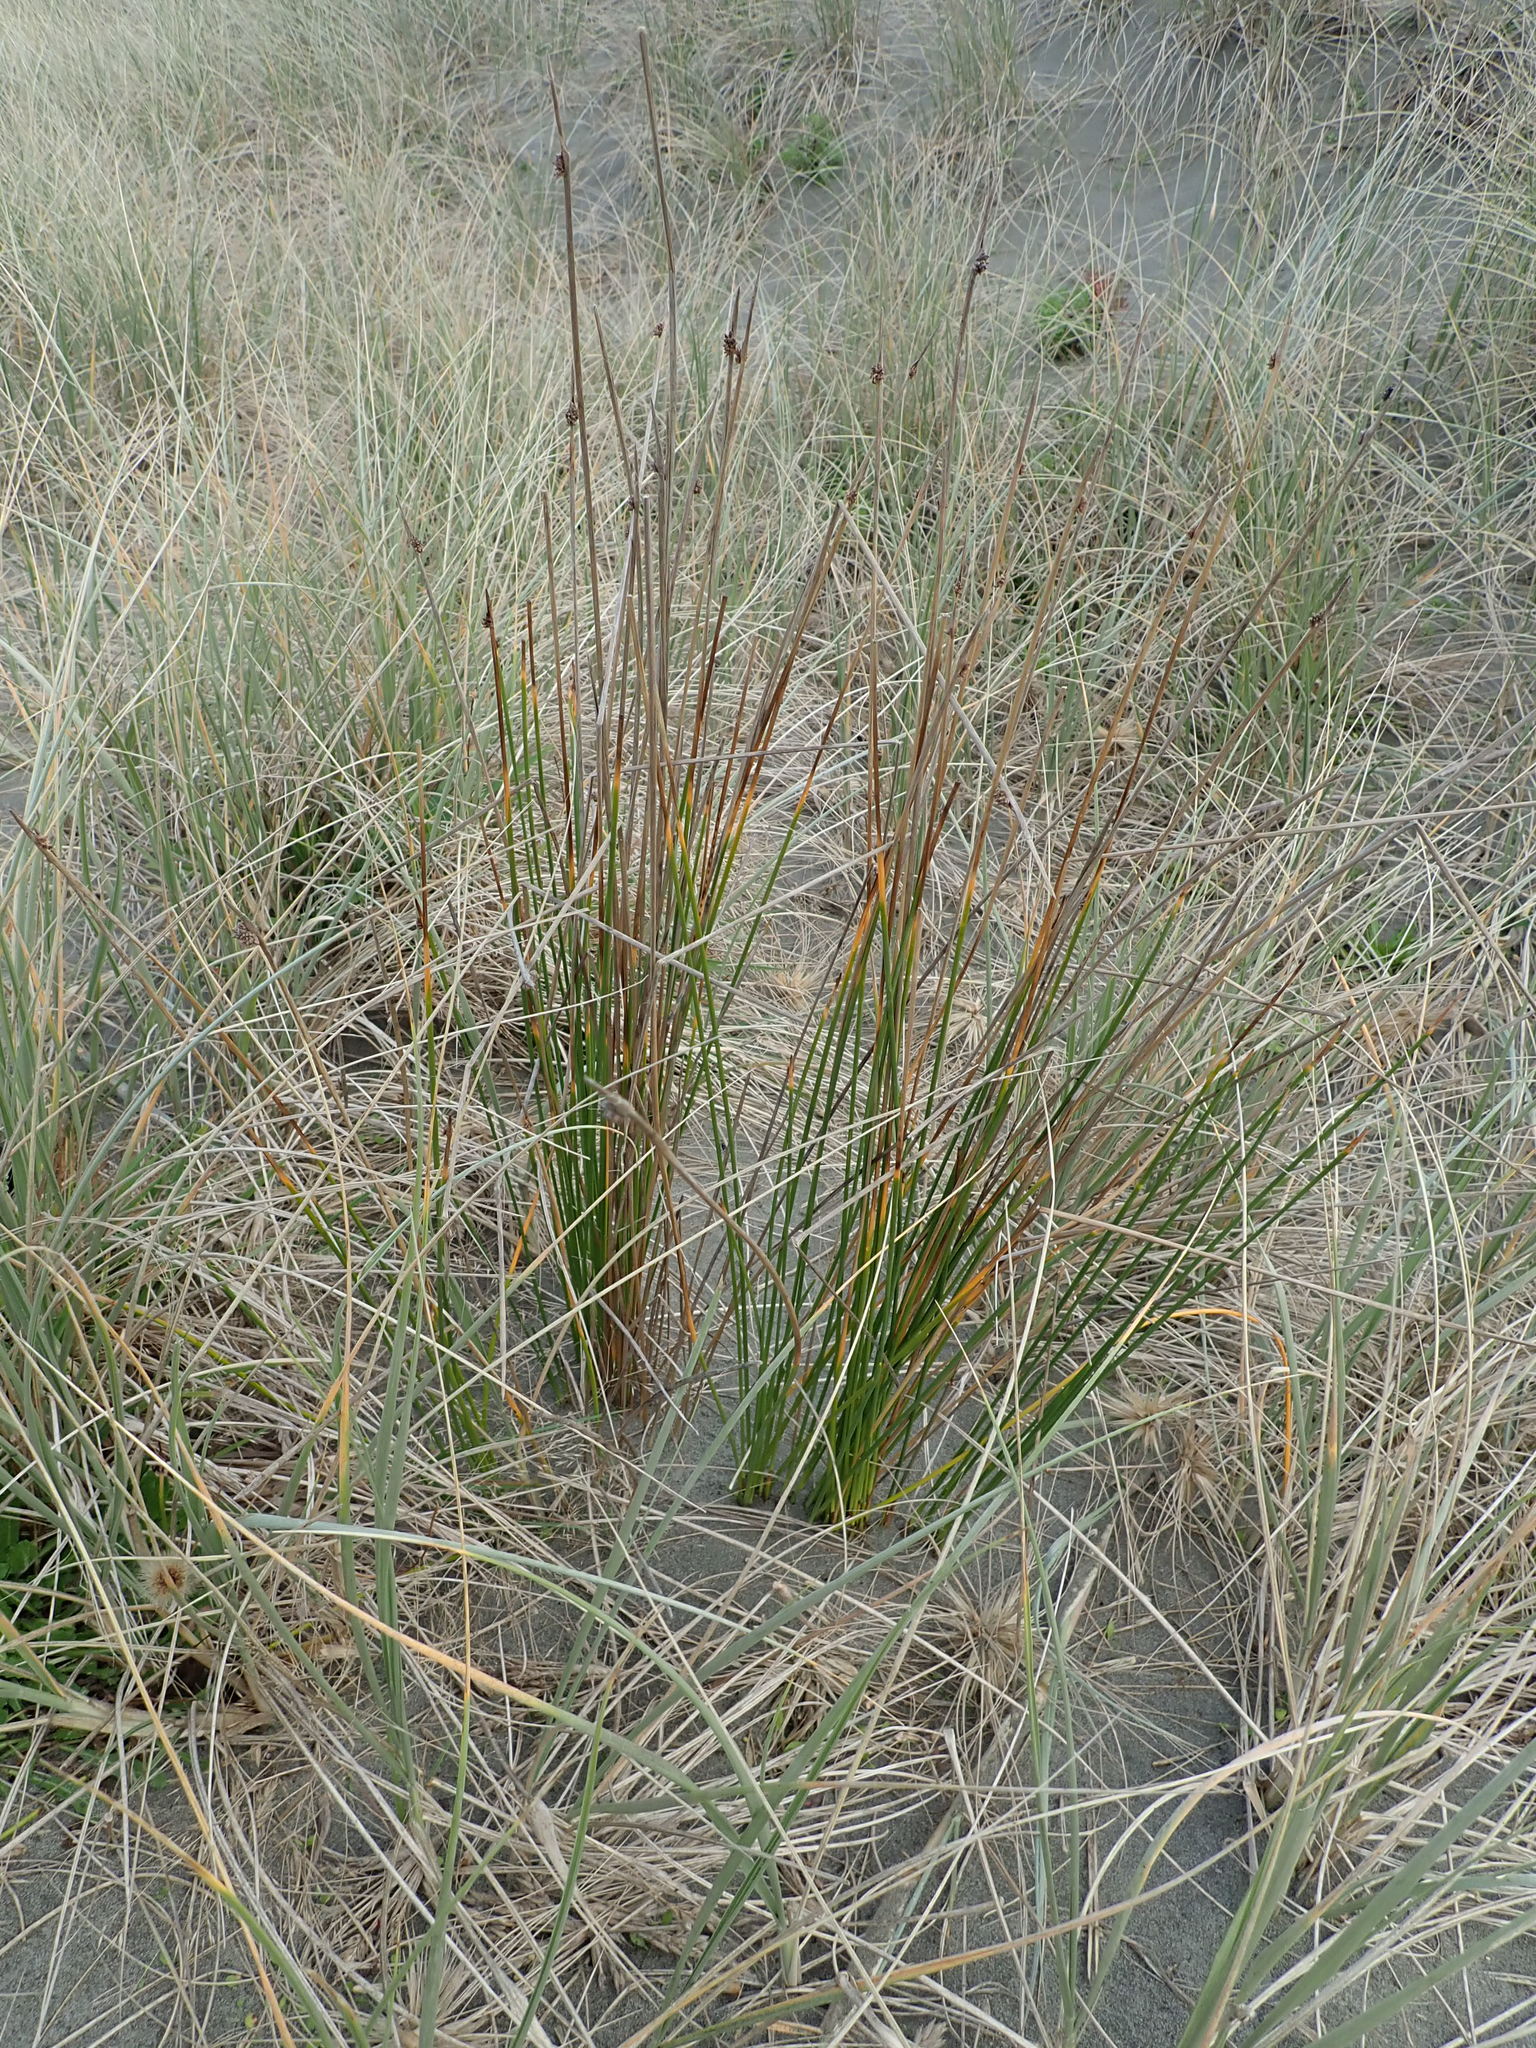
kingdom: Plantae
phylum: Tracheophyta
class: Liliopsida
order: Poales
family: Cyperaceae
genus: Ficinia
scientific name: Ficinia nodosa
